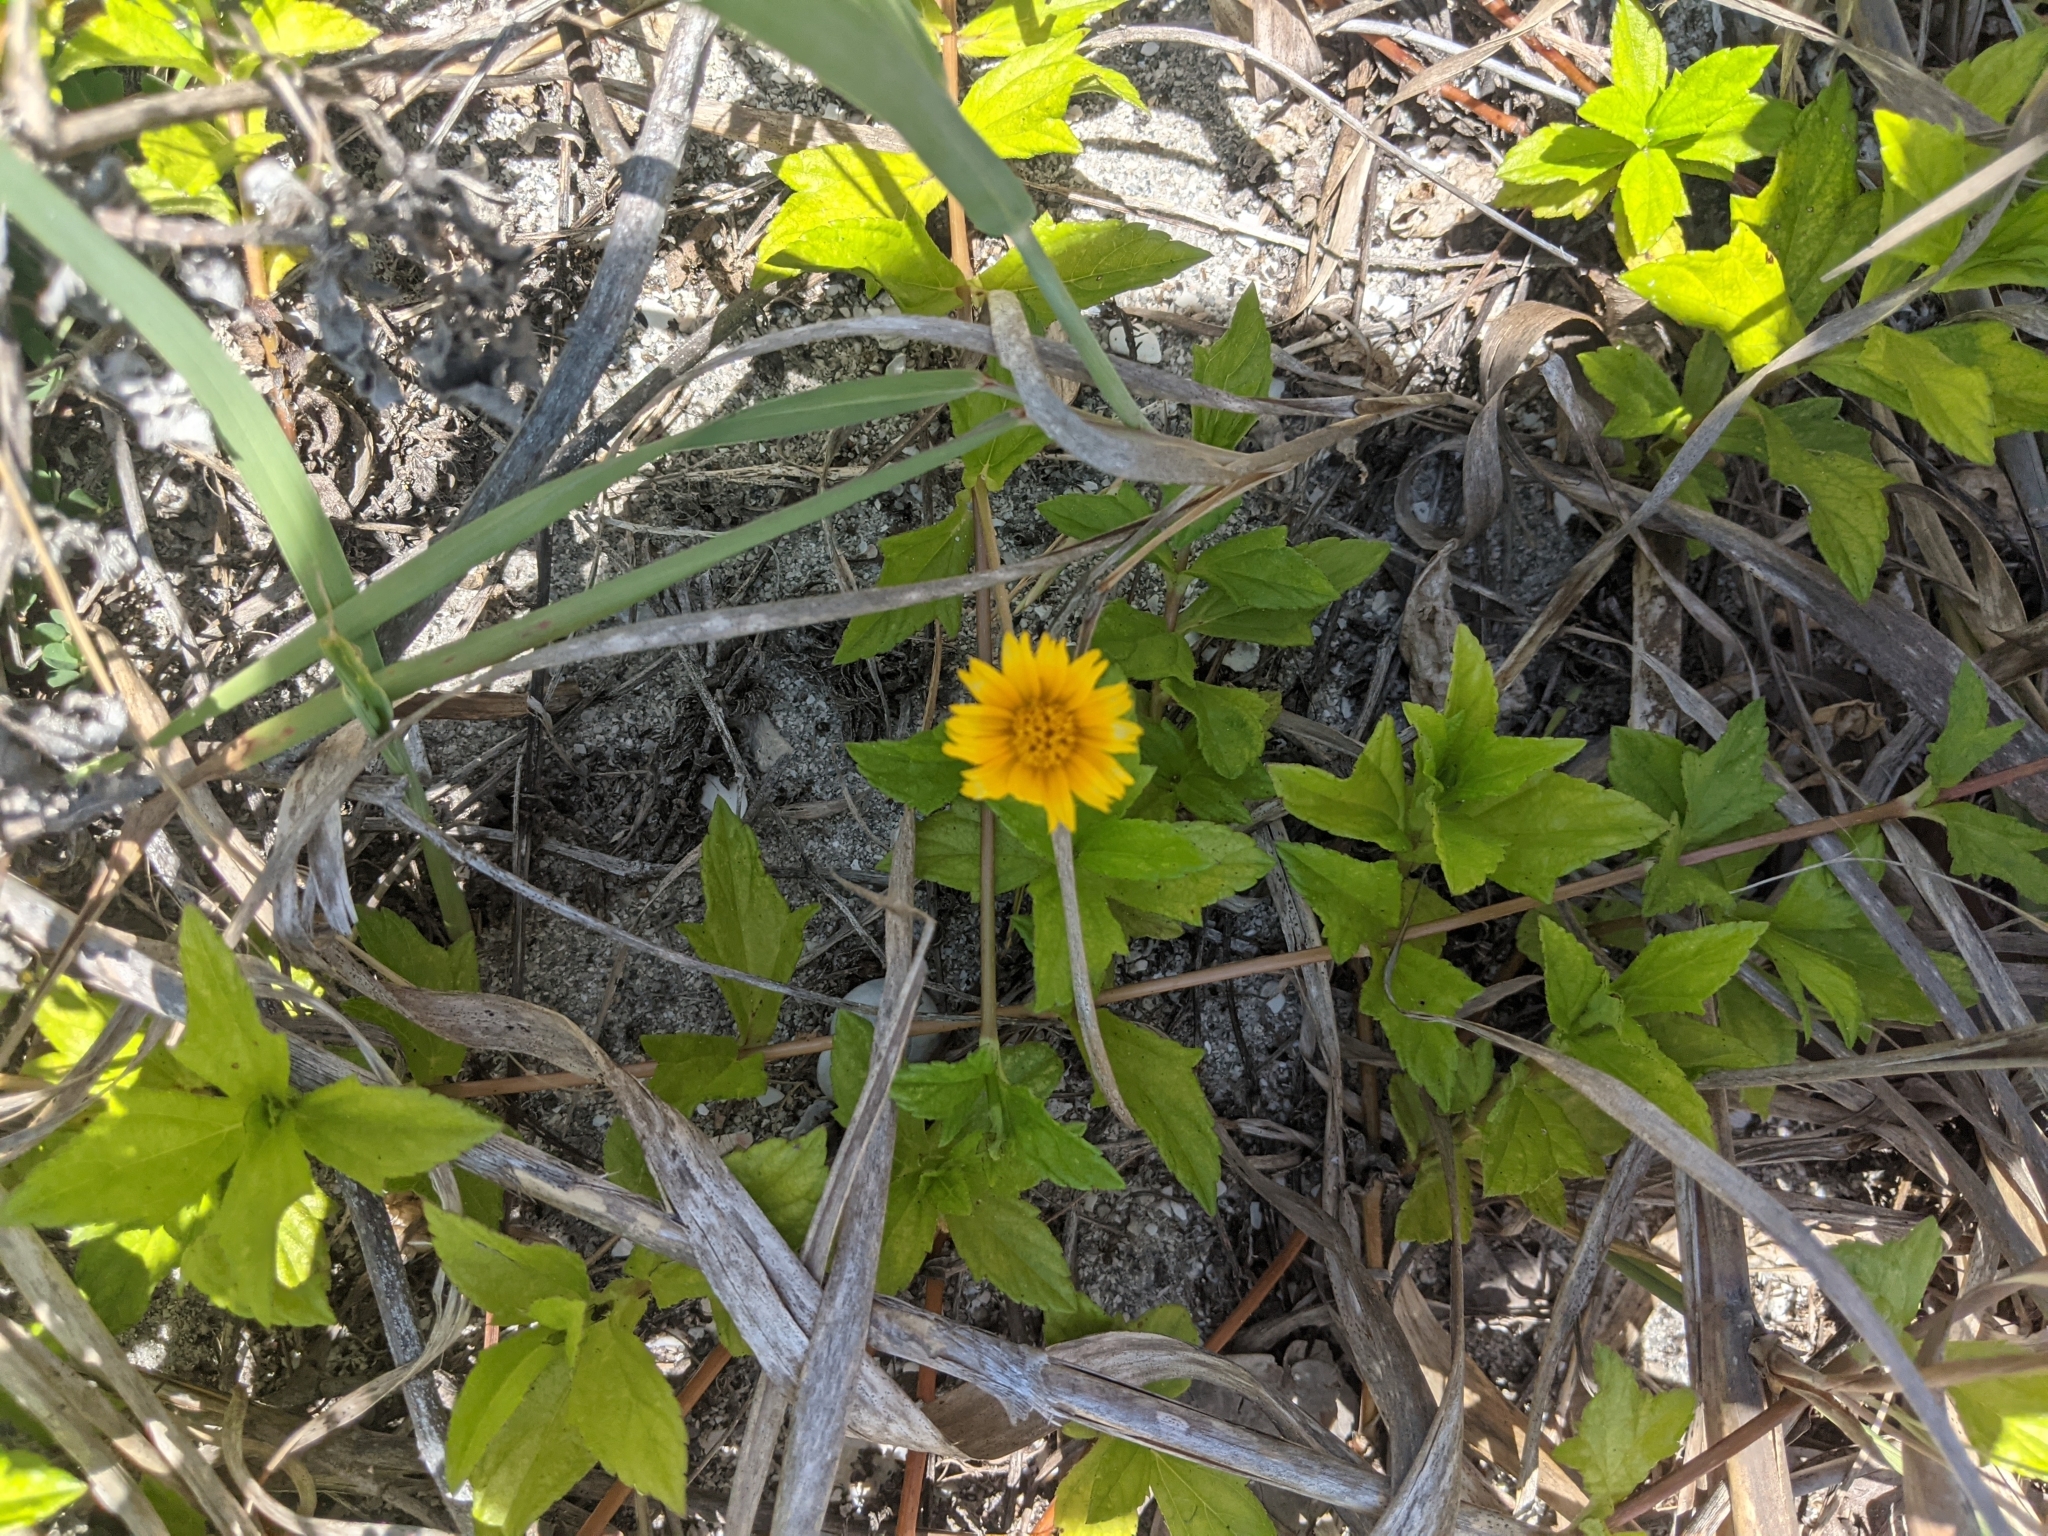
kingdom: Plantae
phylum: Tracheophyta
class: Magnoliopsida
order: Asterales
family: Asteraceae
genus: Sphagneticola
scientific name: Sphagneticola trilobata
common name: Bay biscayne creeping-oxeye
